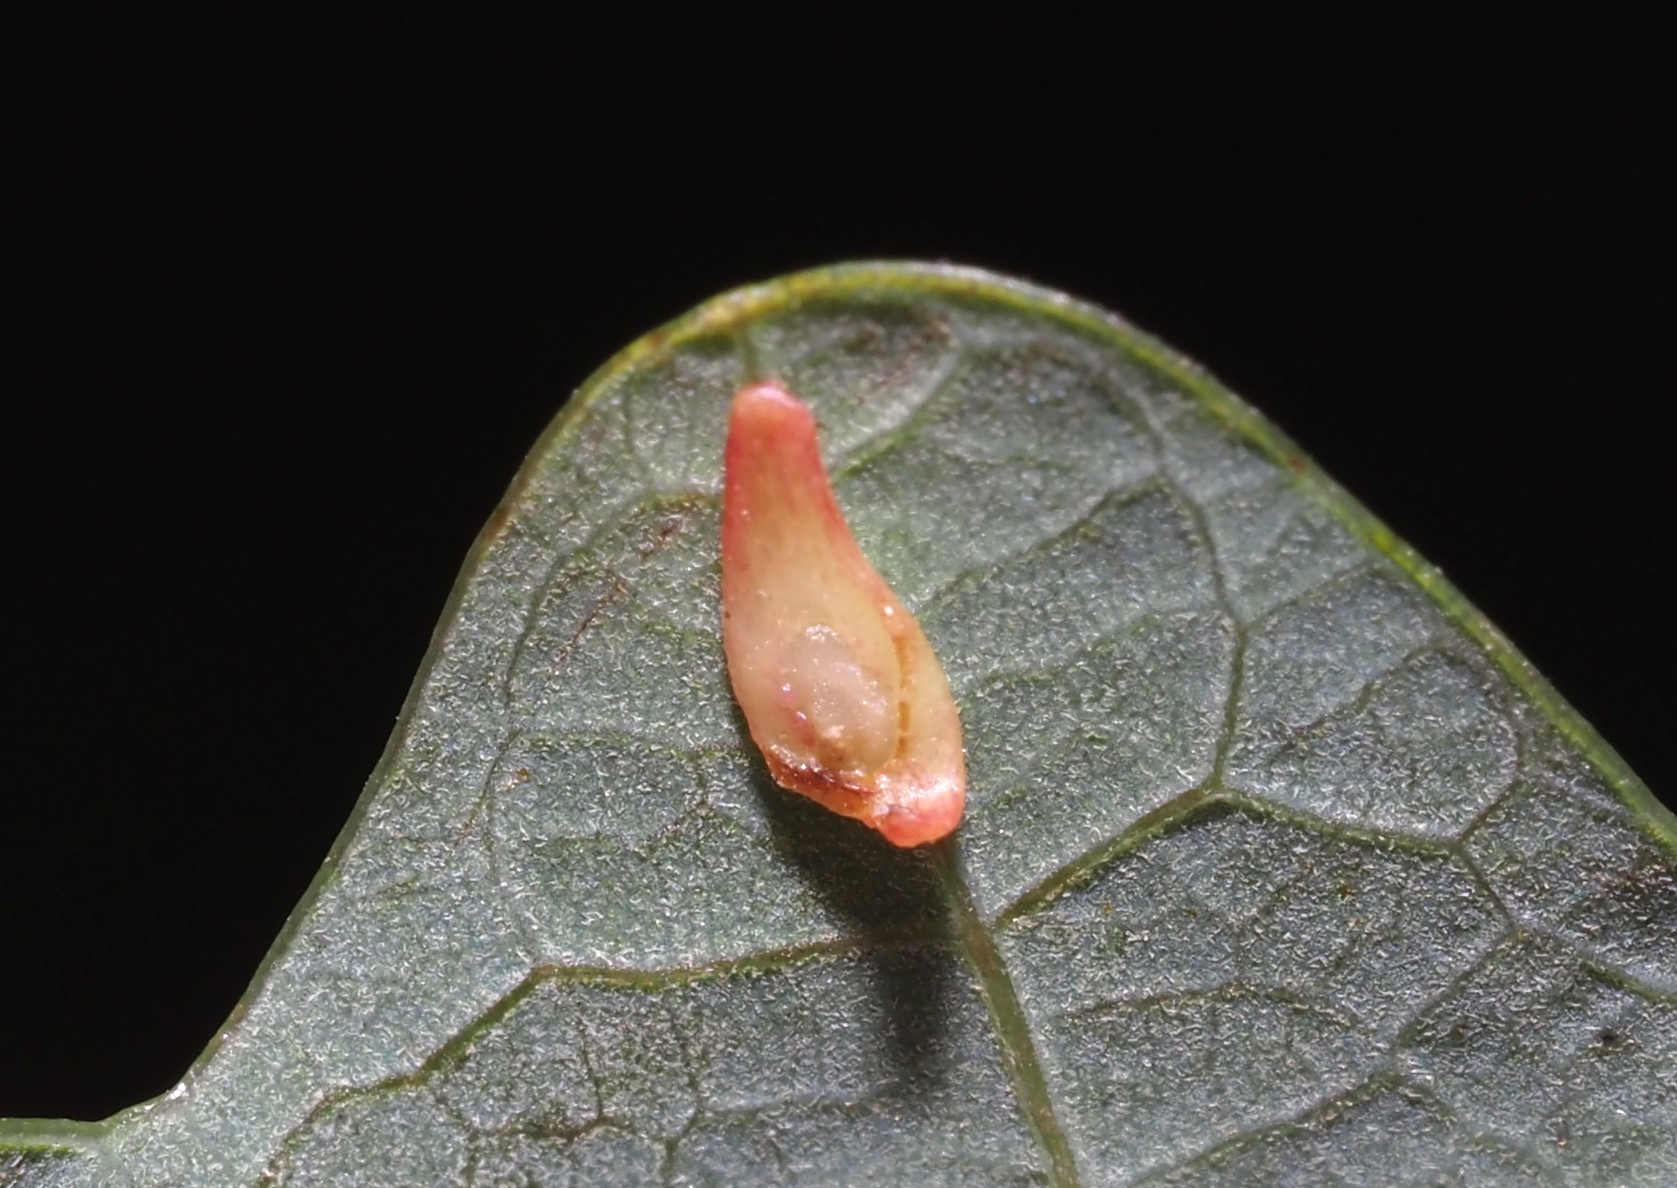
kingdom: Animalia
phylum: Arthropoda
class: Insecta
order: Hymenoptera
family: Cynipidae
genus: Phylloteras
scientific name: Phylloteras
